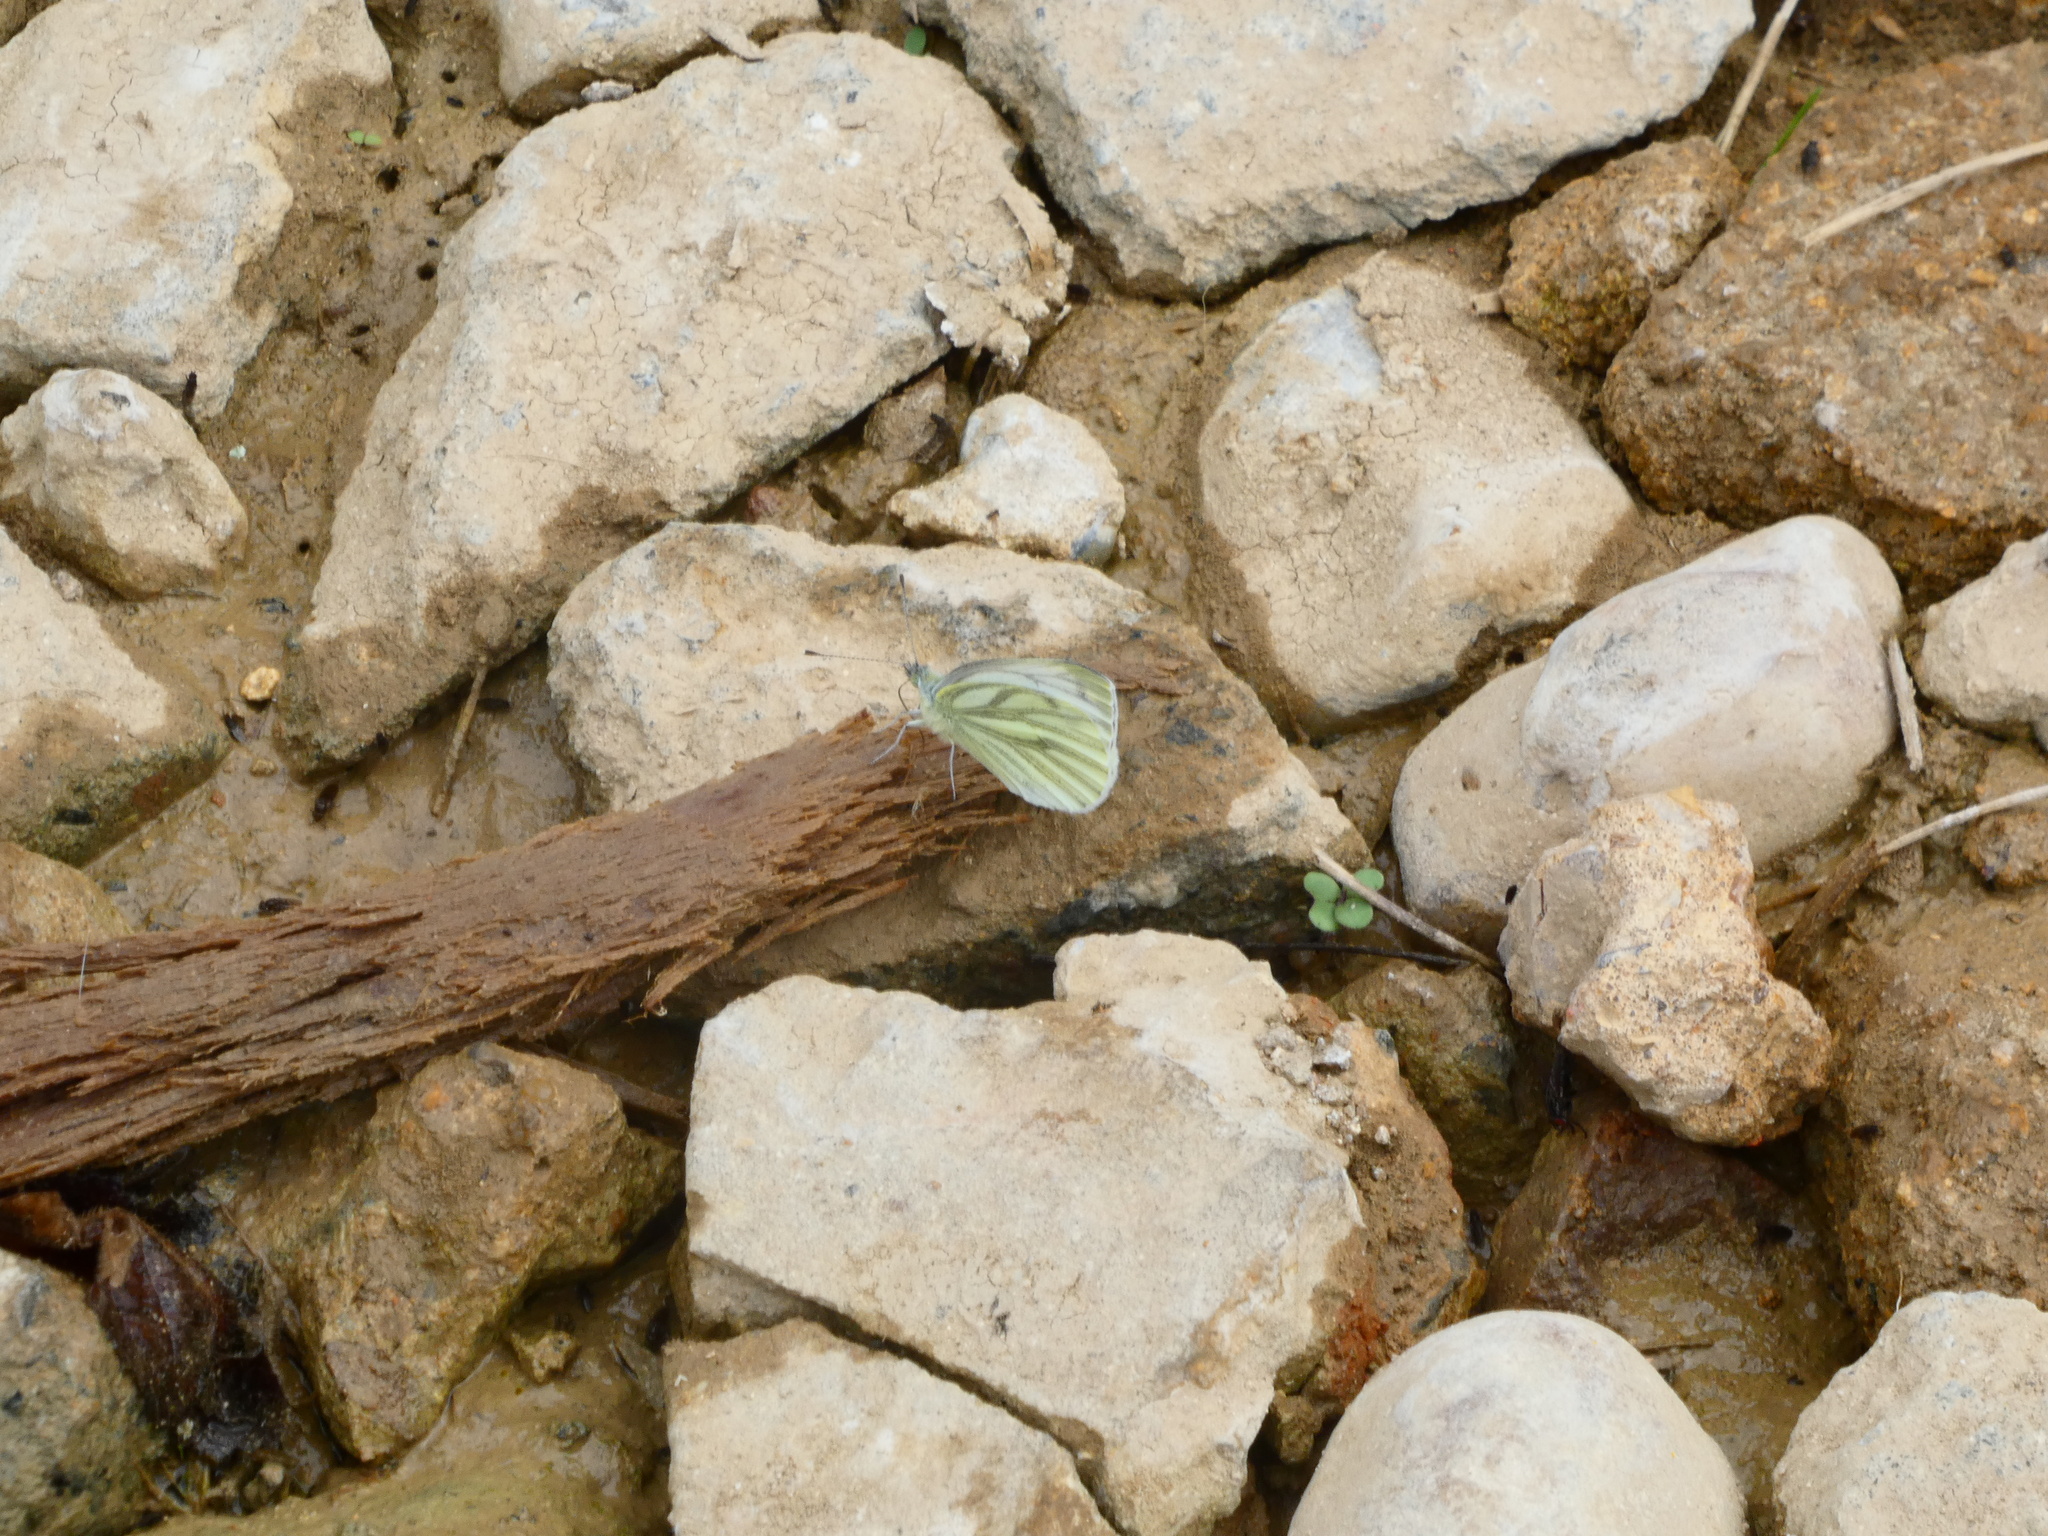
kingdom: Animalia
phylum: Arthropoda
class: Insecta
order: Lepidoptera
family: Pieridae
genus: Pieris
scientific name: Pieris napi
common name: Green-veined white
